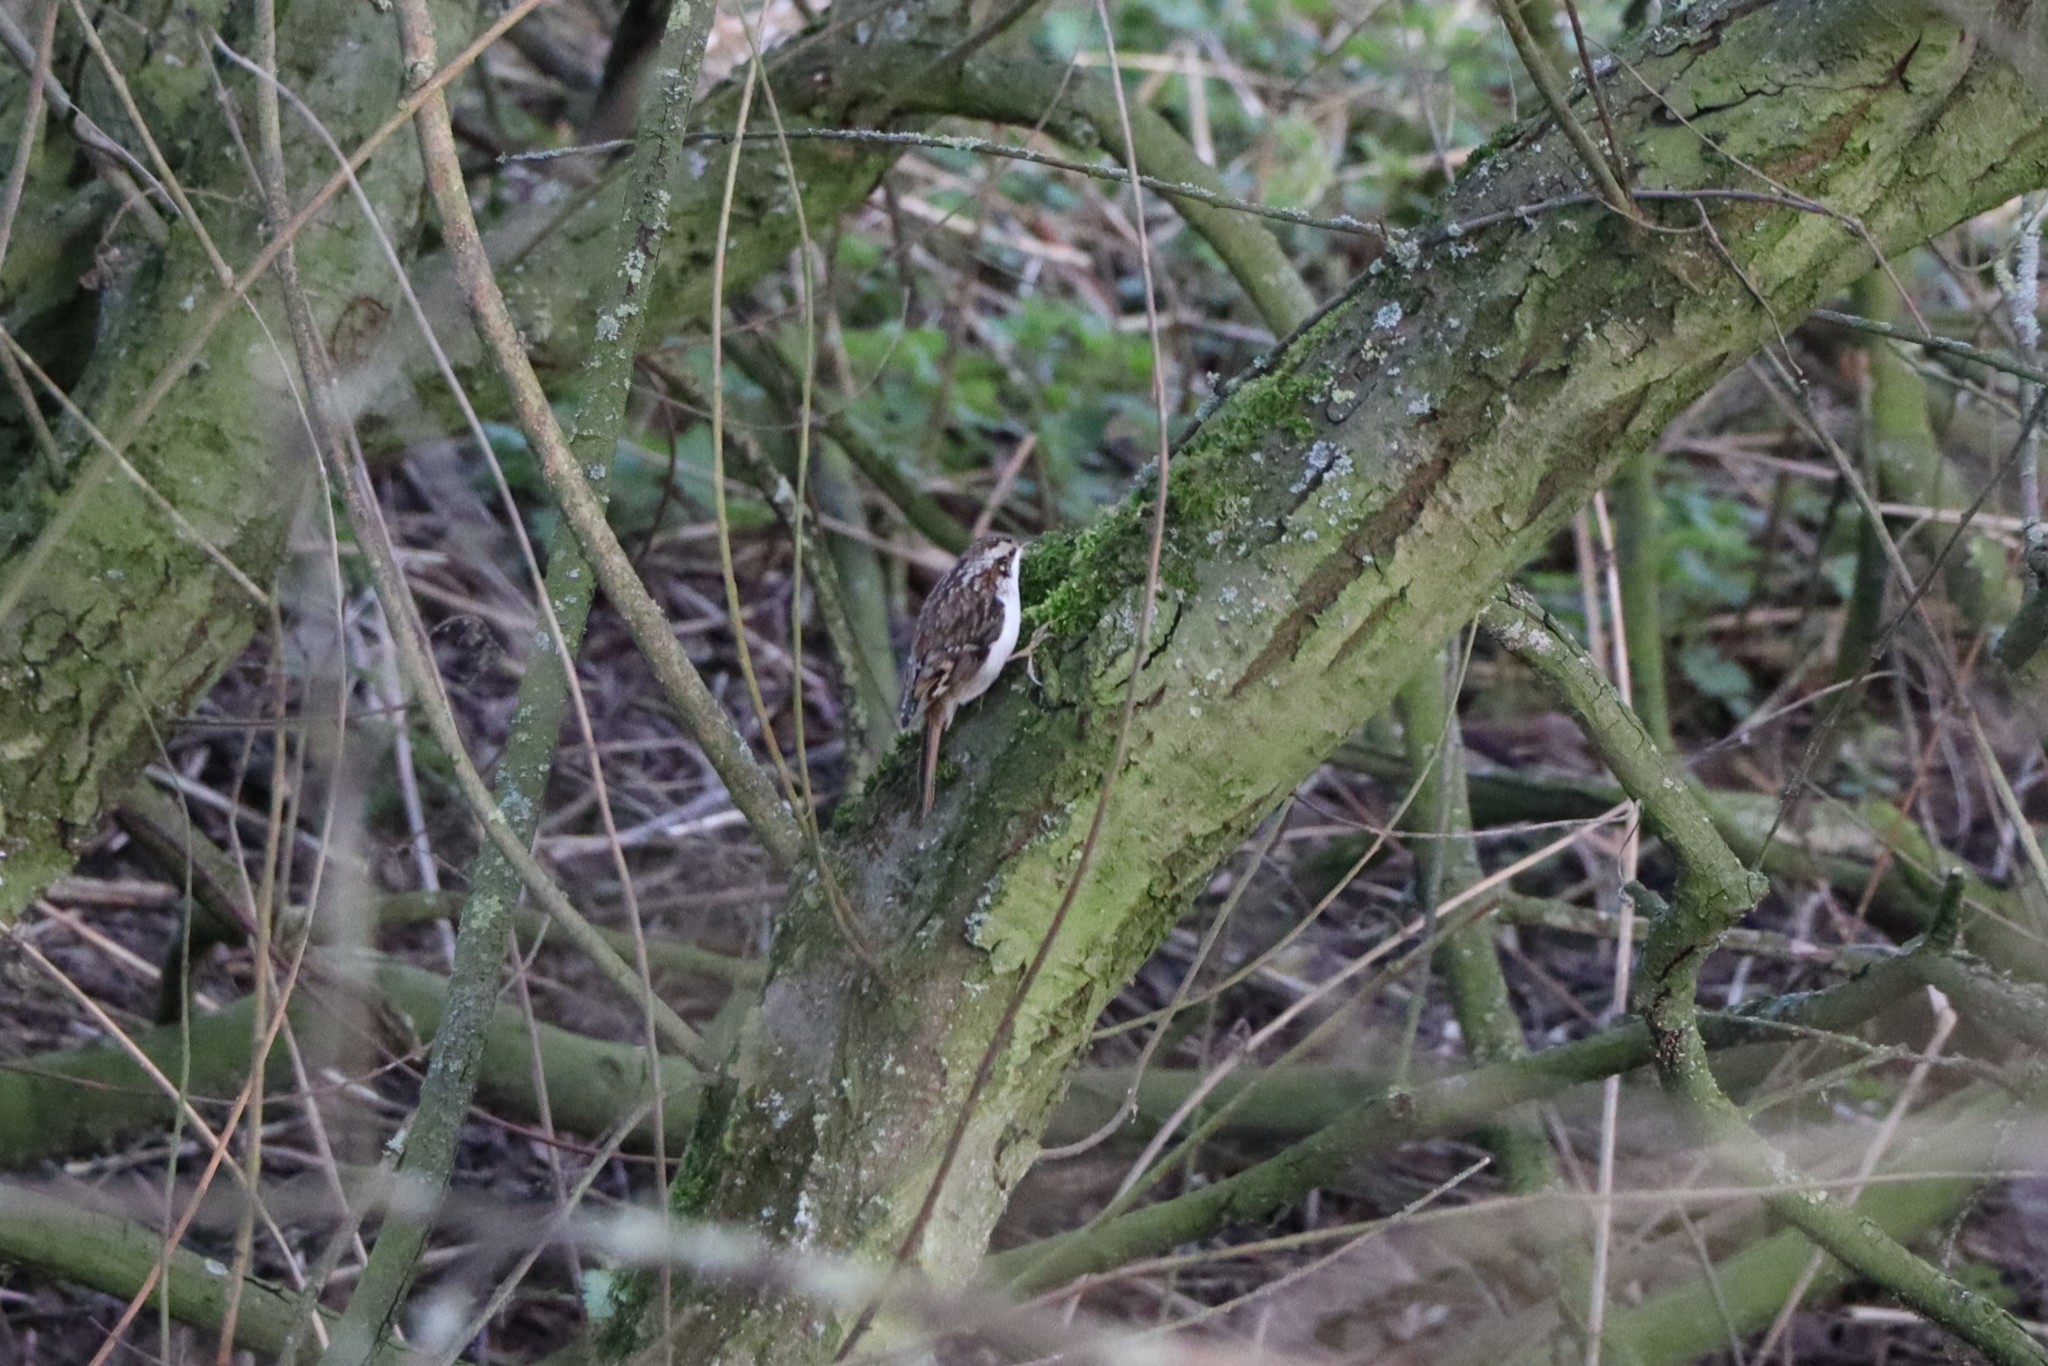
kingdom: Animalia
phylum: Chordata
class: Aves
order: Passeriformes
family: Certhiidae
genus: Certhia
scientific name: Certhia familiaris
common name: Eurasian treecreeper
